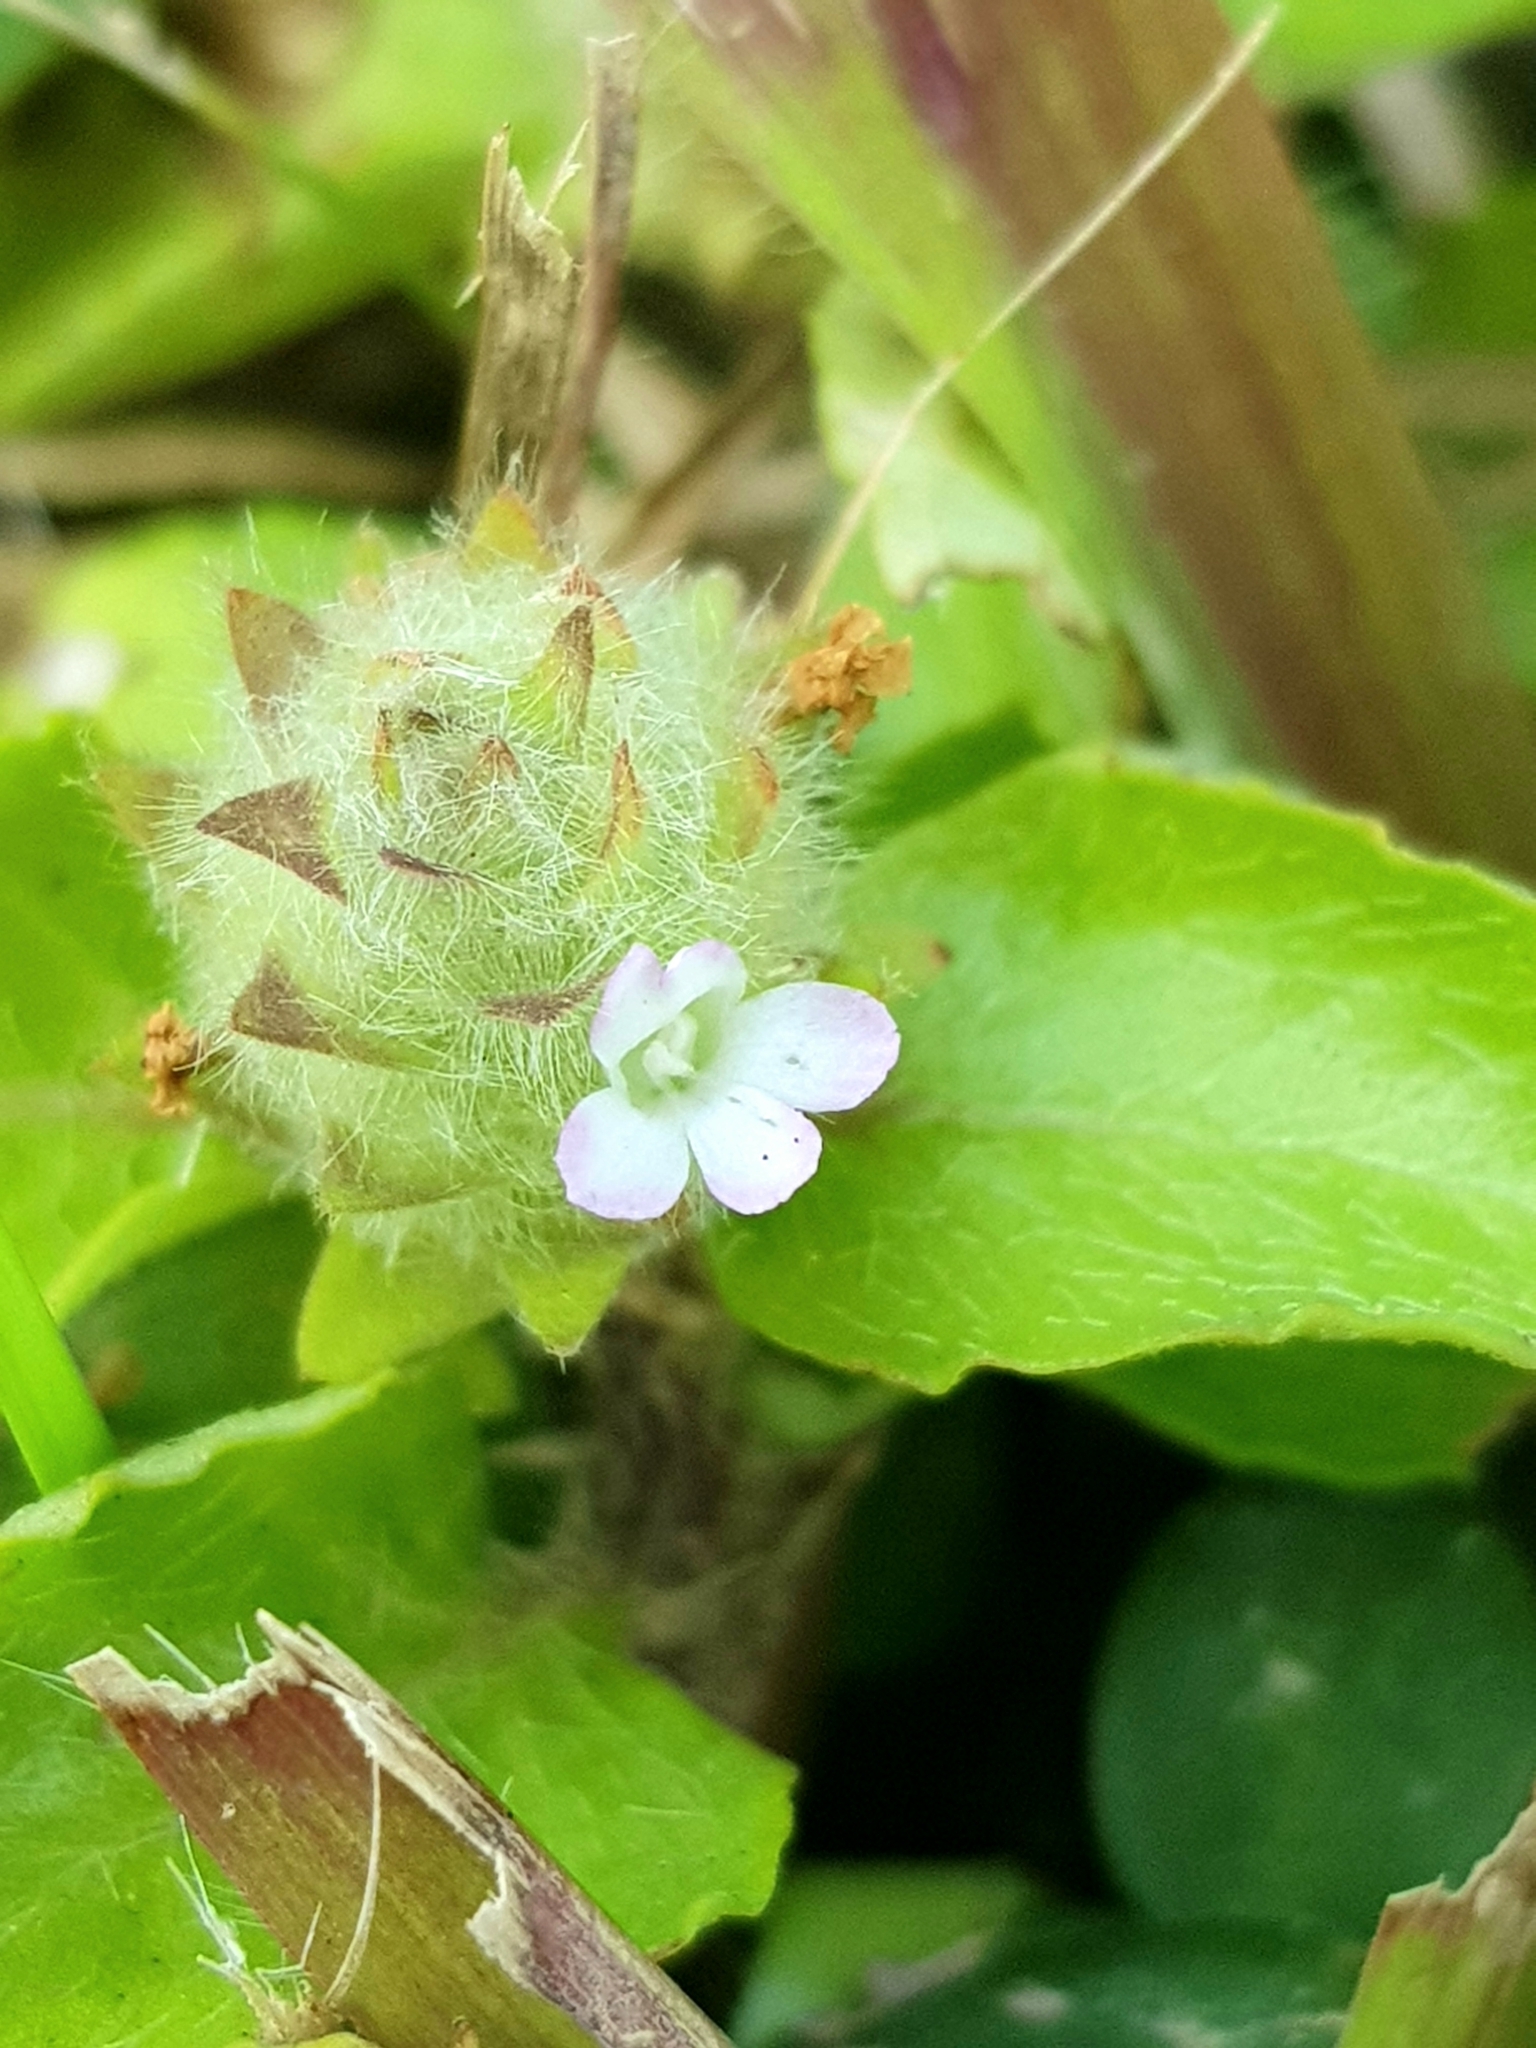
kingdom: Plantae
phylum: Tracheophyta
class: Magnoliopsida
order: Lamiales
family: Acanthaceae
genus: Nelsonia
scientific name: Nelsonia canescens
